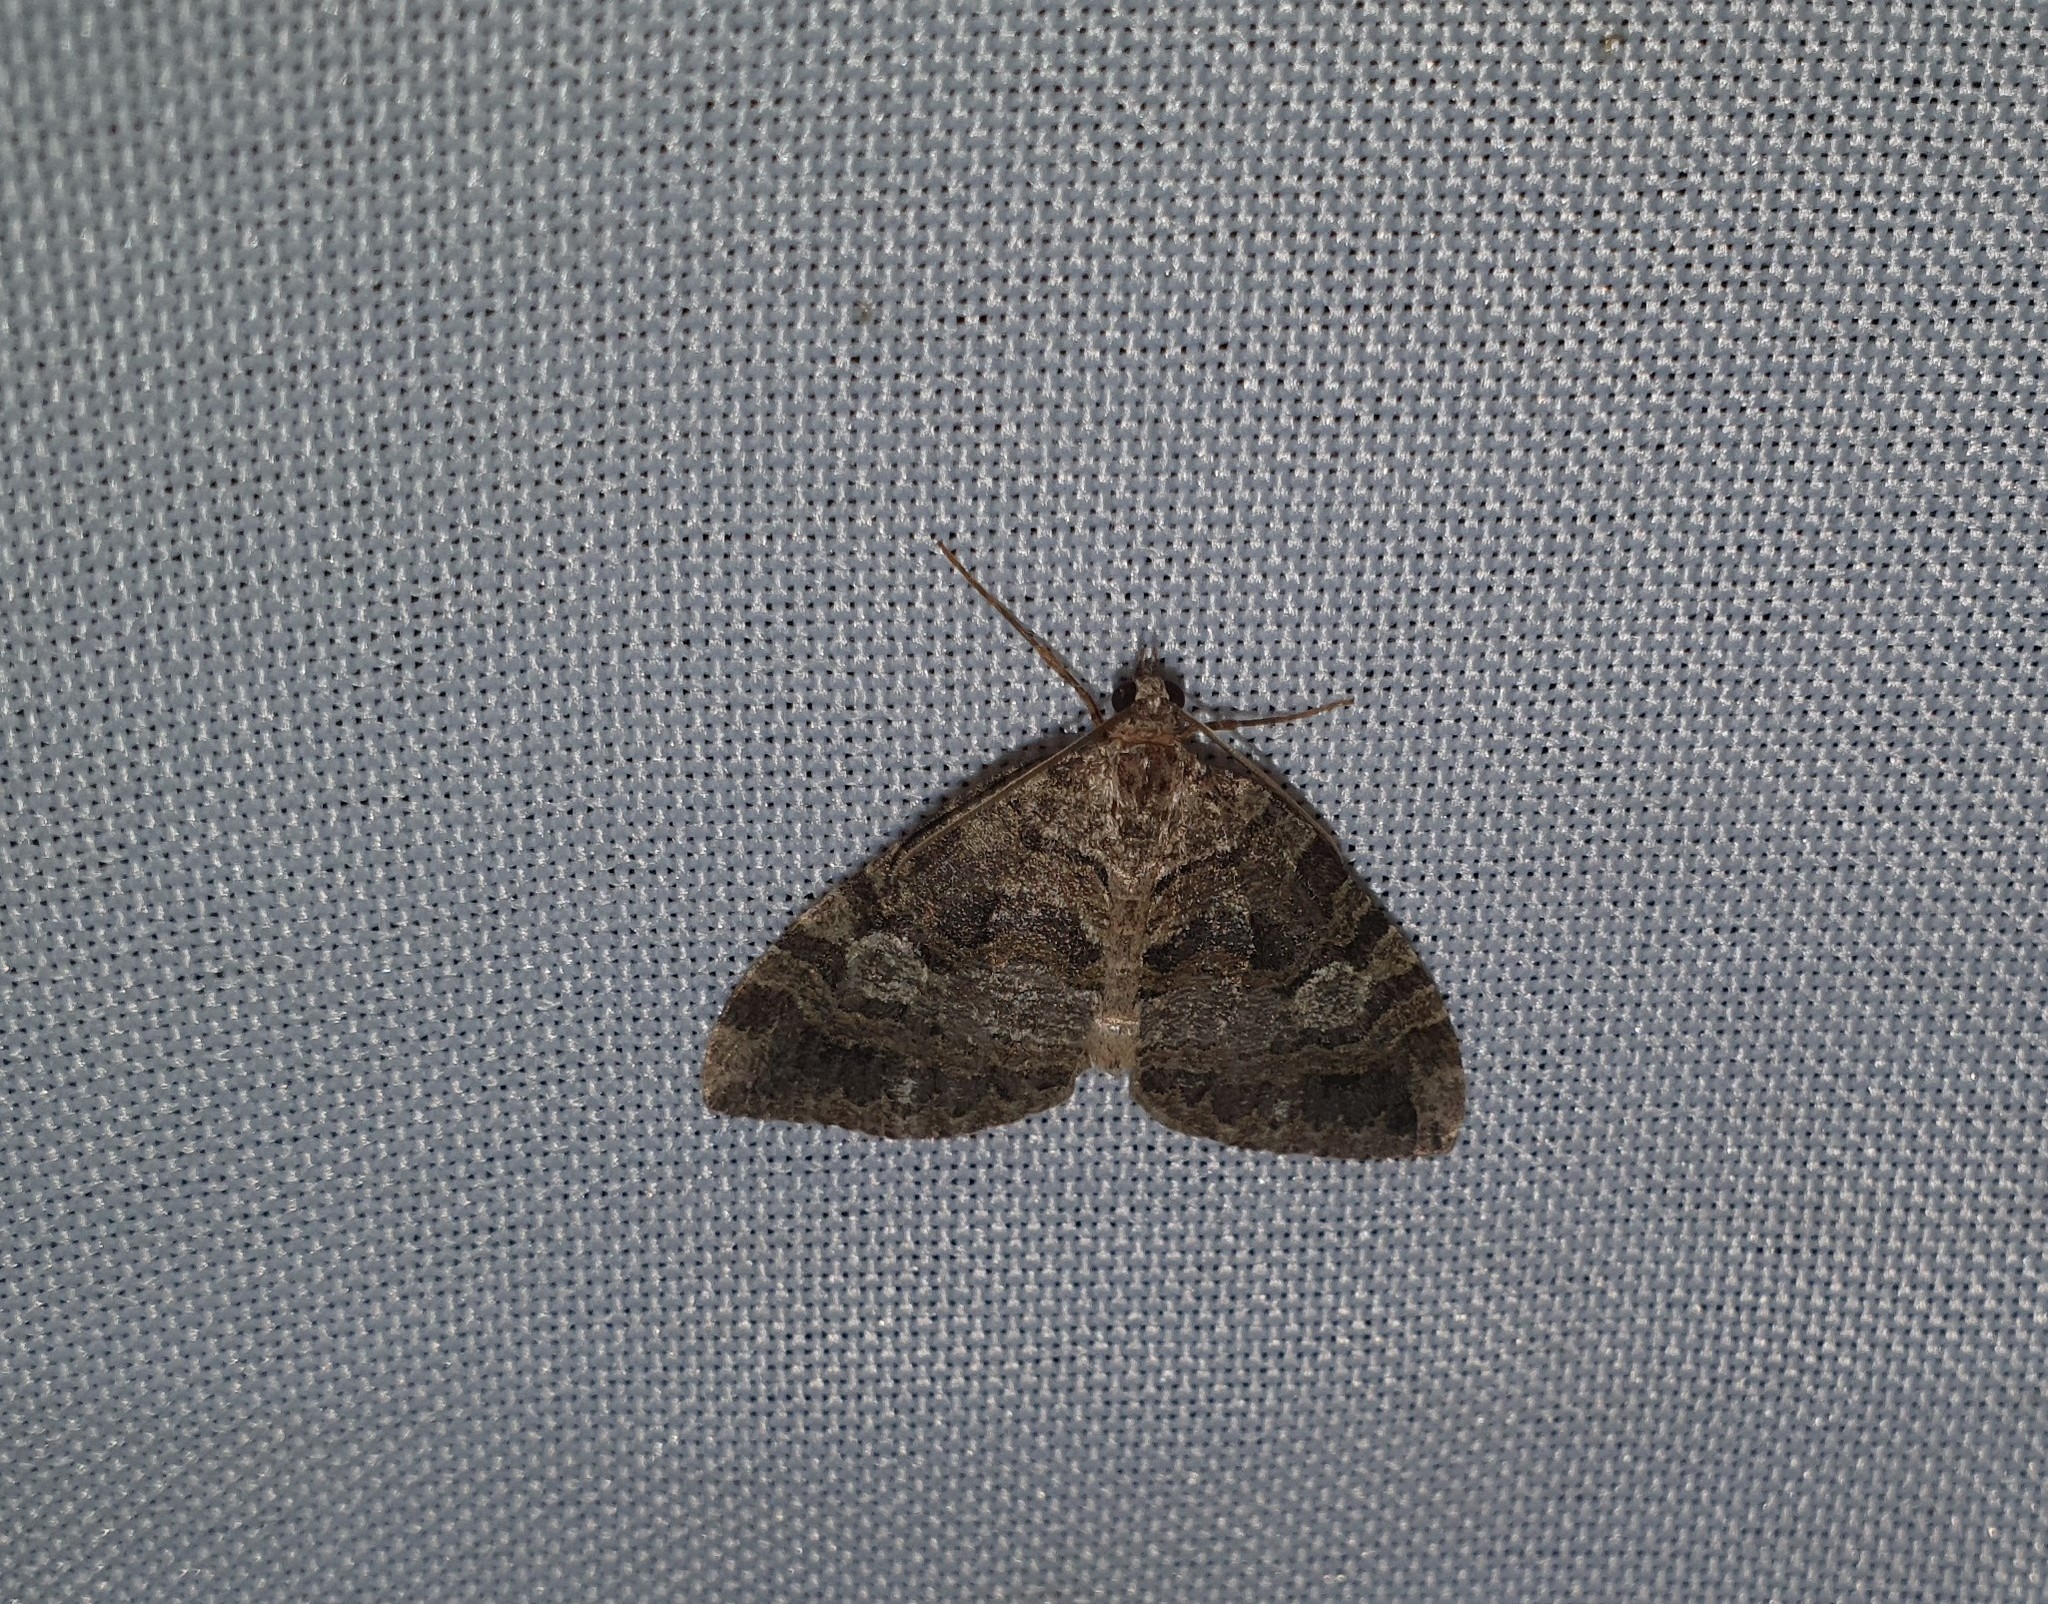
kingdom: Animalia
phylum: Arthropoda
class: Insecta
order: Lepidoptera
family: Geometridae
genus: Hydriomena
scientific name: Hydriomena furcata
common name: July highflyer
